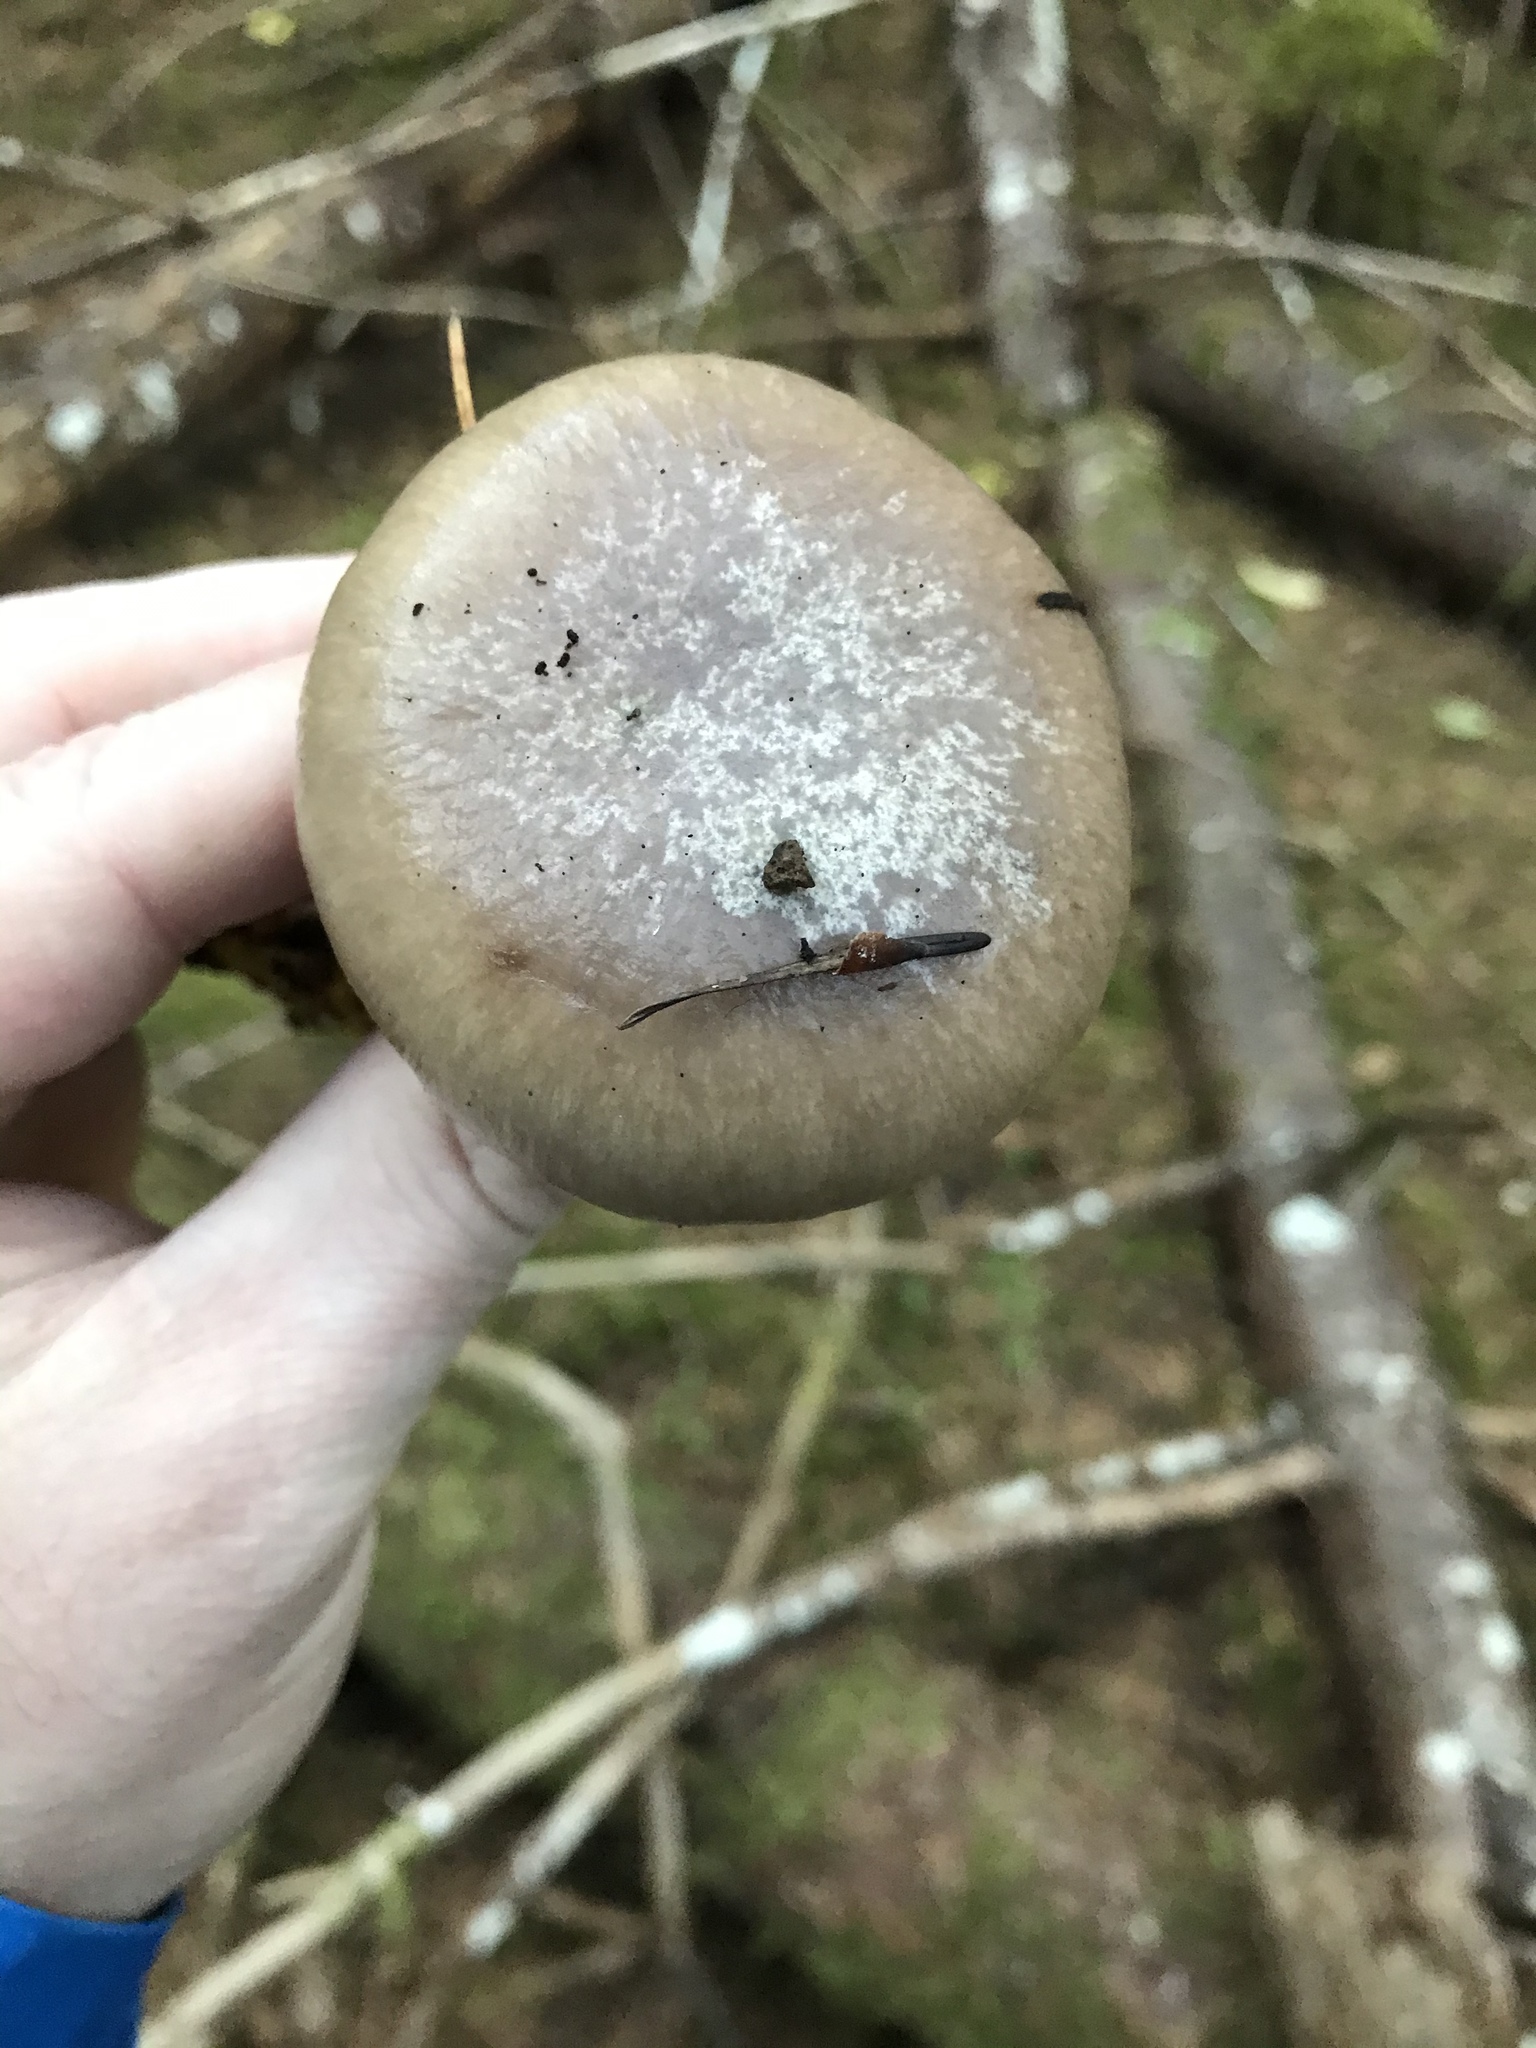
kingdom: Fungi
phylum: Basidiomycota
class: Agaricomycetes
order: Boletales
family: Gomphidiaceae
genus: Gomphidius
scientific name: Gomphidius oregonensis
